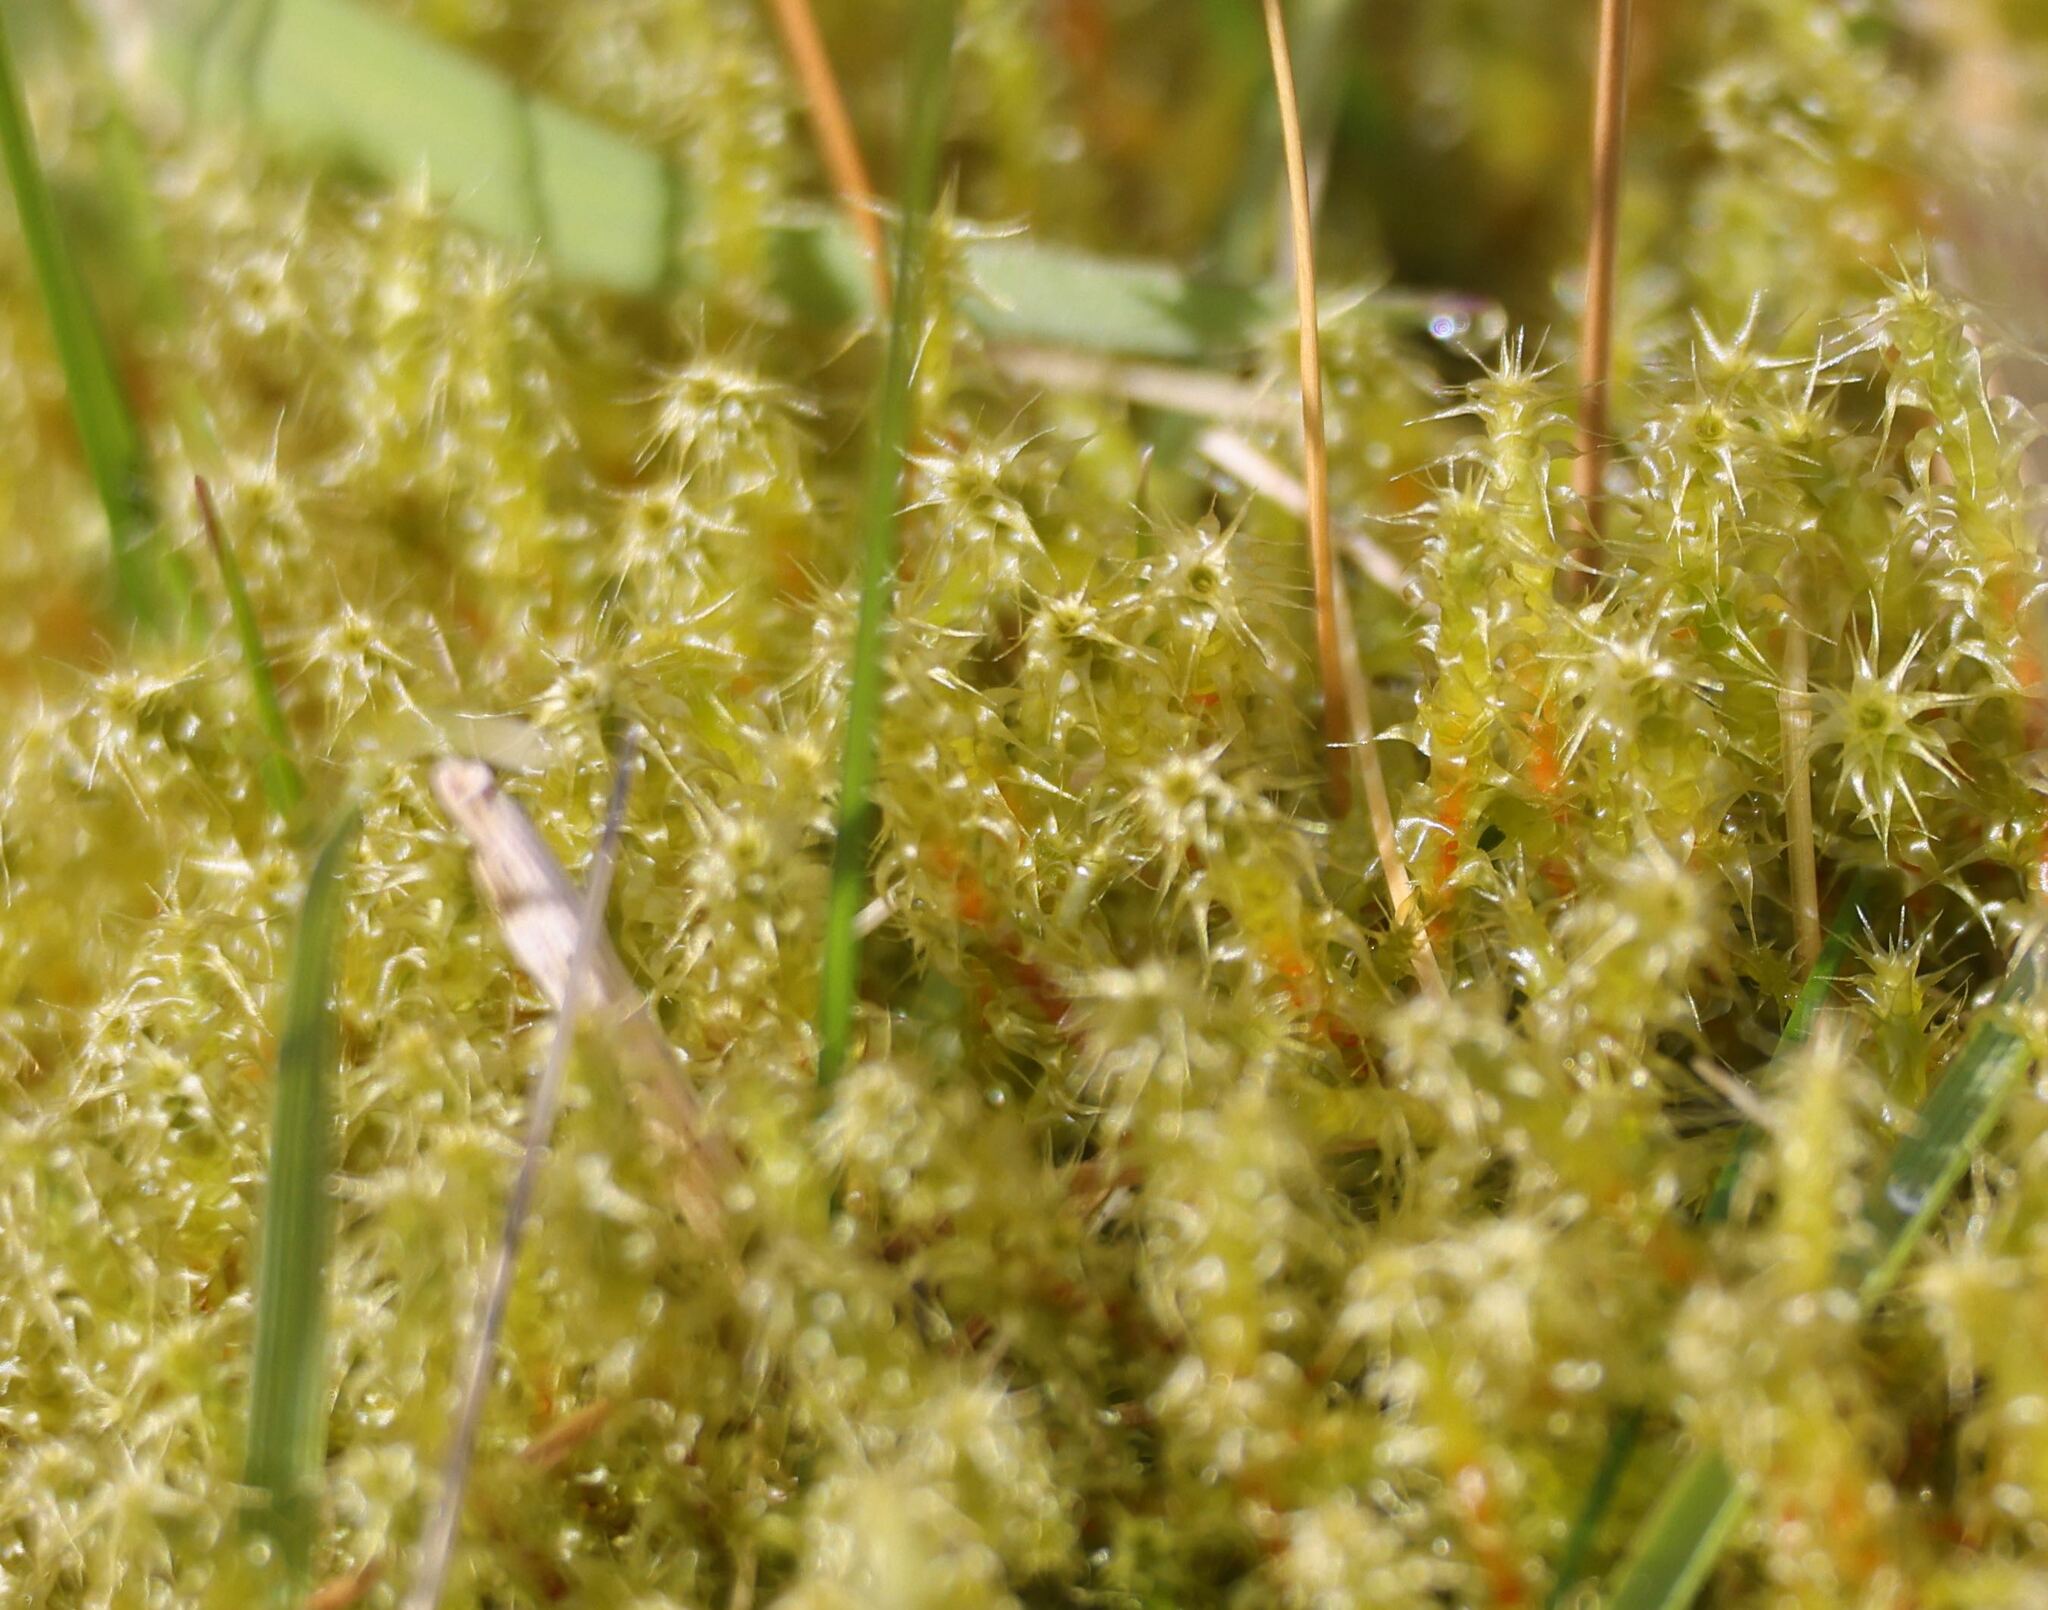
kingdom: Plantae
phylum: Bryophyta
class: Bryopsida
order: Hypnales
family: Hylocomiaceae
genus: Rhytidiadelphus
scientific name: Rhytidiadelphus squarrosus
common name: Springy turf-moss
